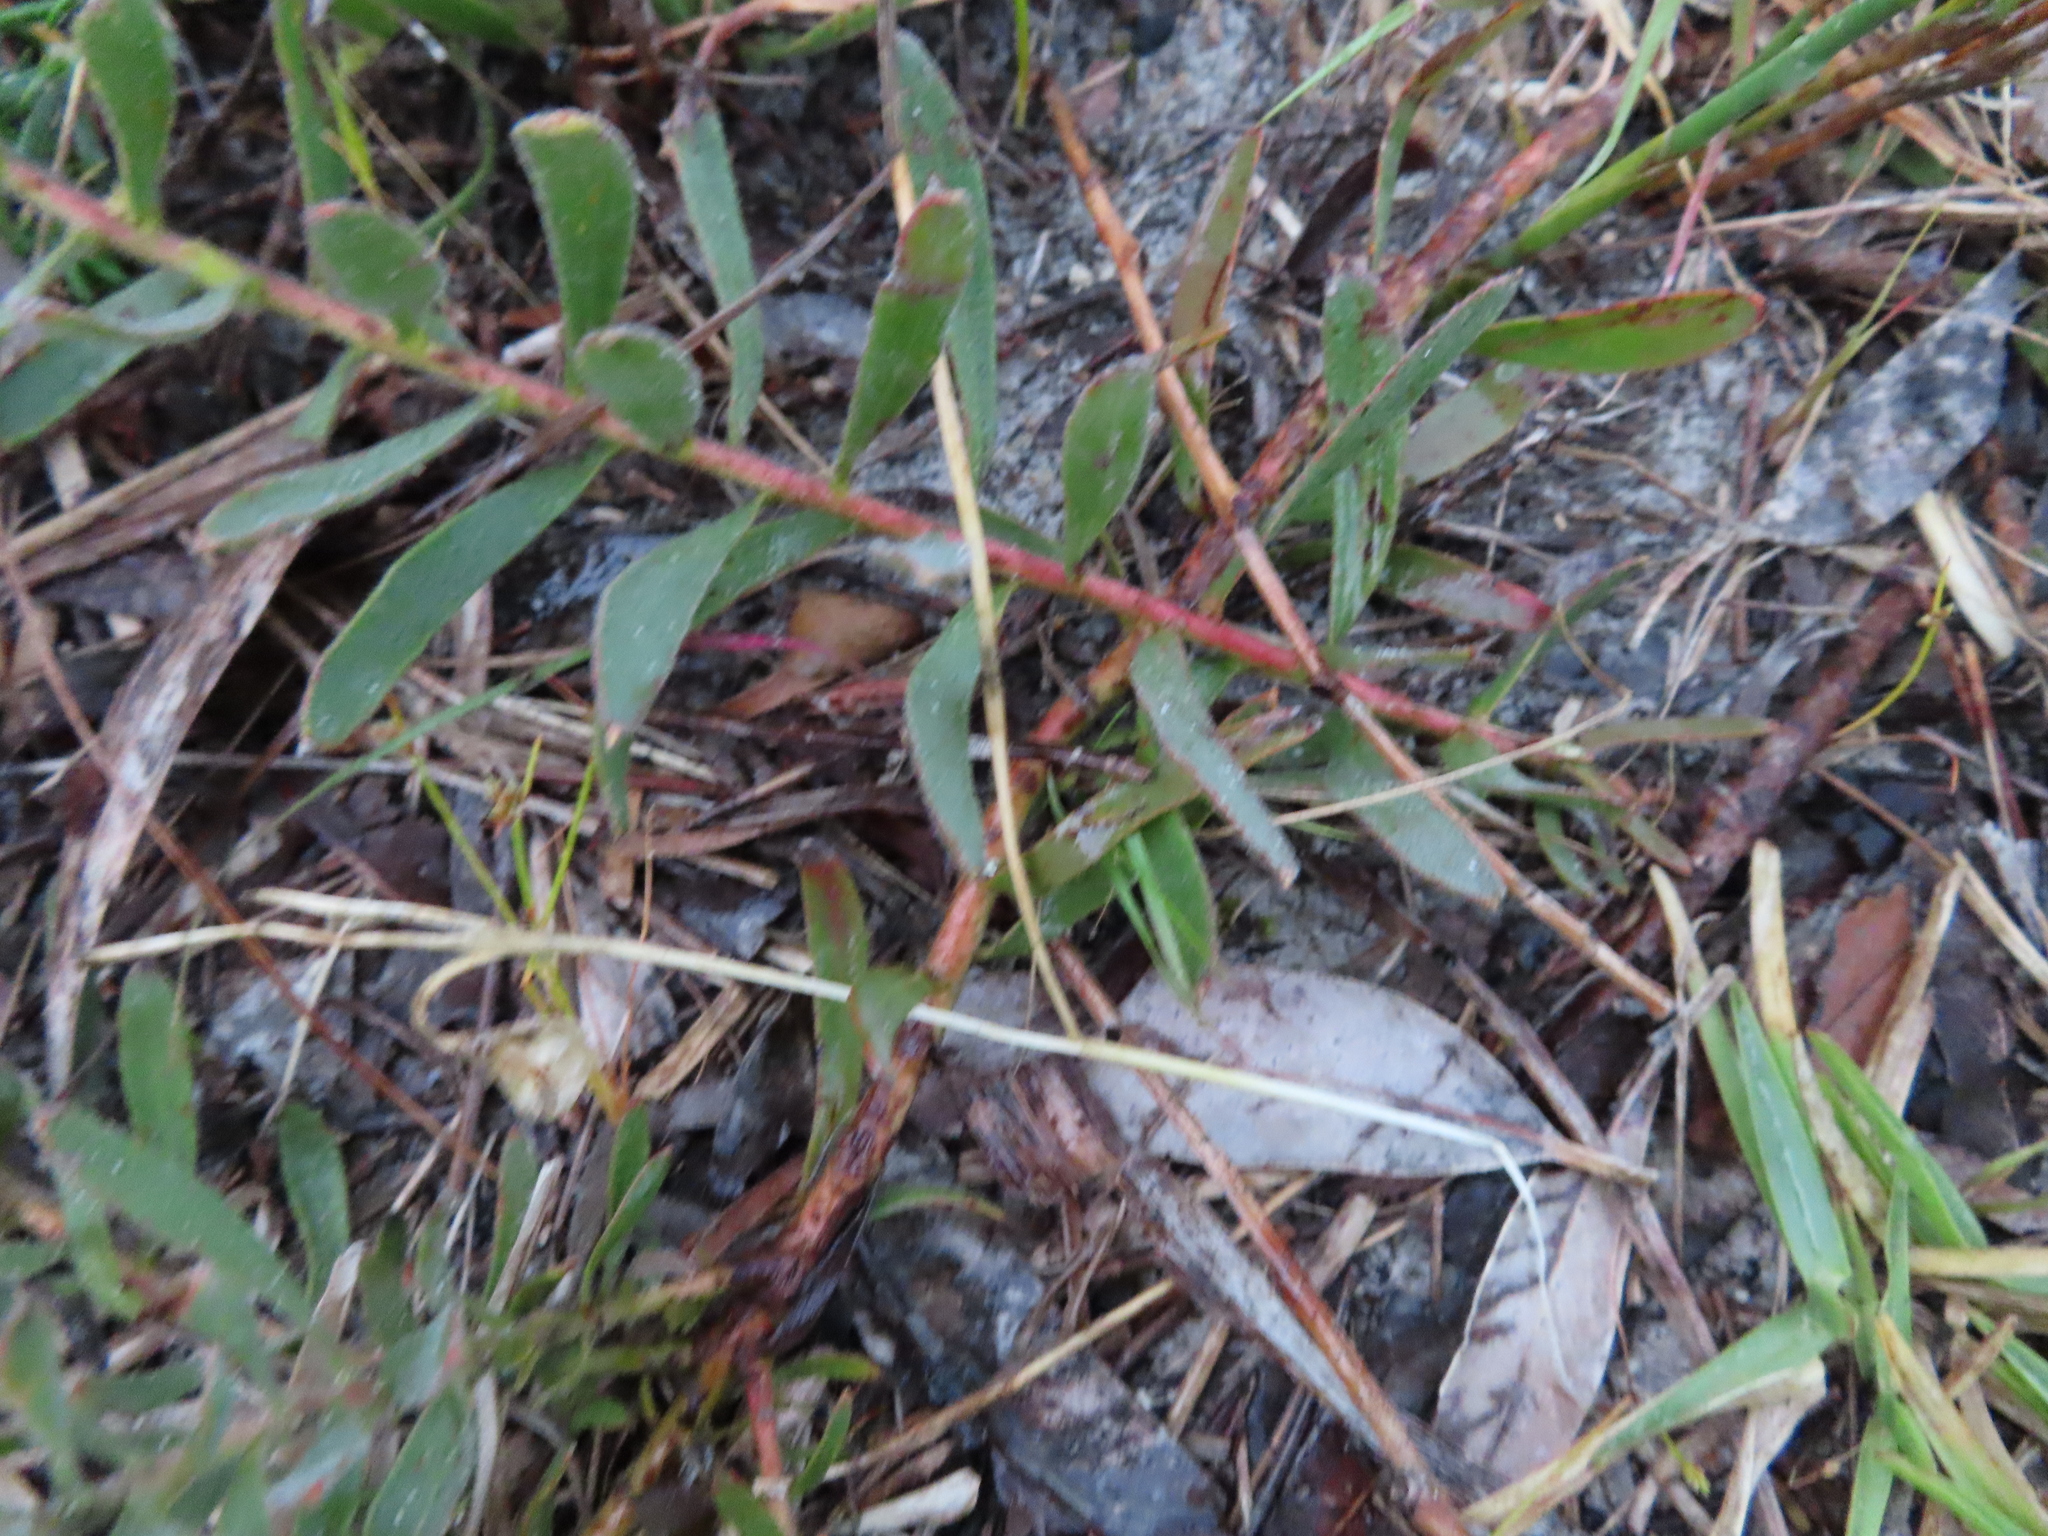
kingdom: Plantae
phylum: Tracheophyta
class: Magnoliopsida
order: Proteales
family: Proteaceae
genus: Leucospermum
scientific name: Leucospermum prostratum
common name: Yellow-trailing pincushion
